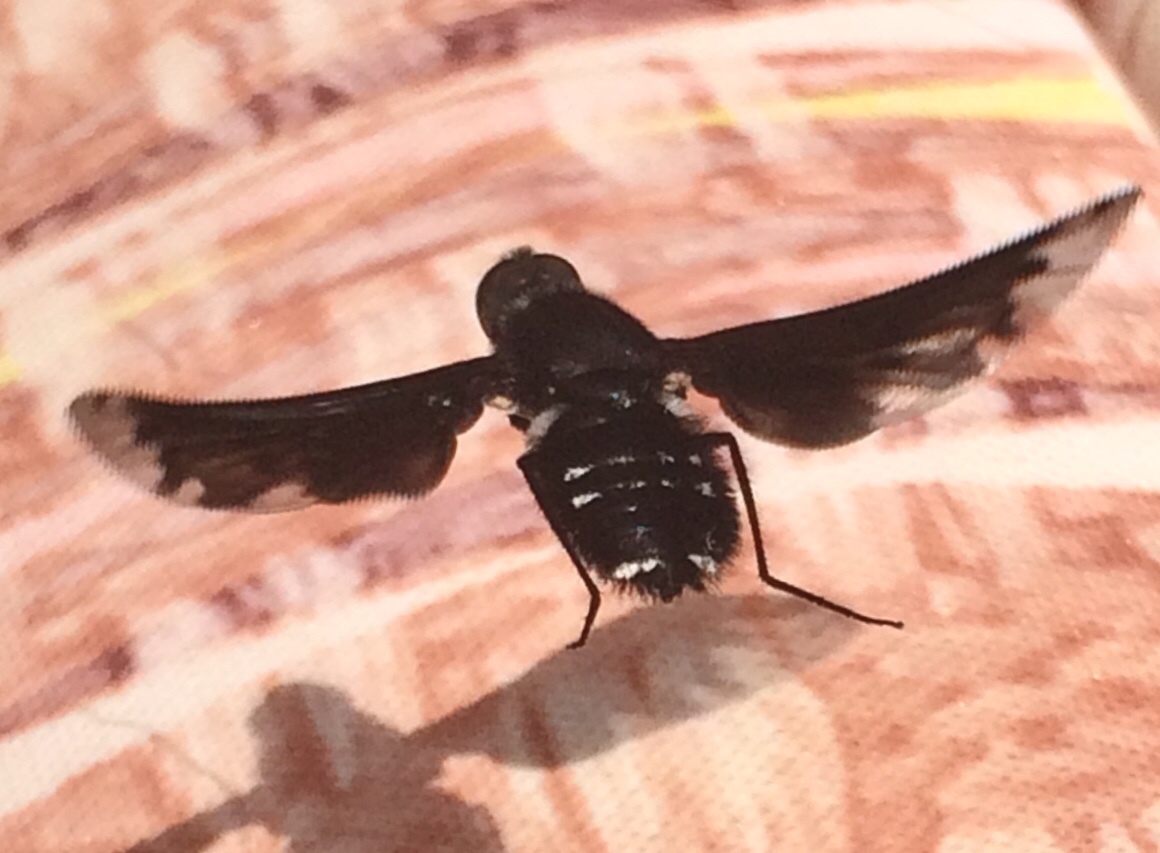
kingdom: Animalia
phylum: Arthropoda
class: Insecta
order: Diptera
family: Bombyliidae
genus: Anthrax
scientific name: Anthrax anthrax
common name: Anthracite bee-fly
